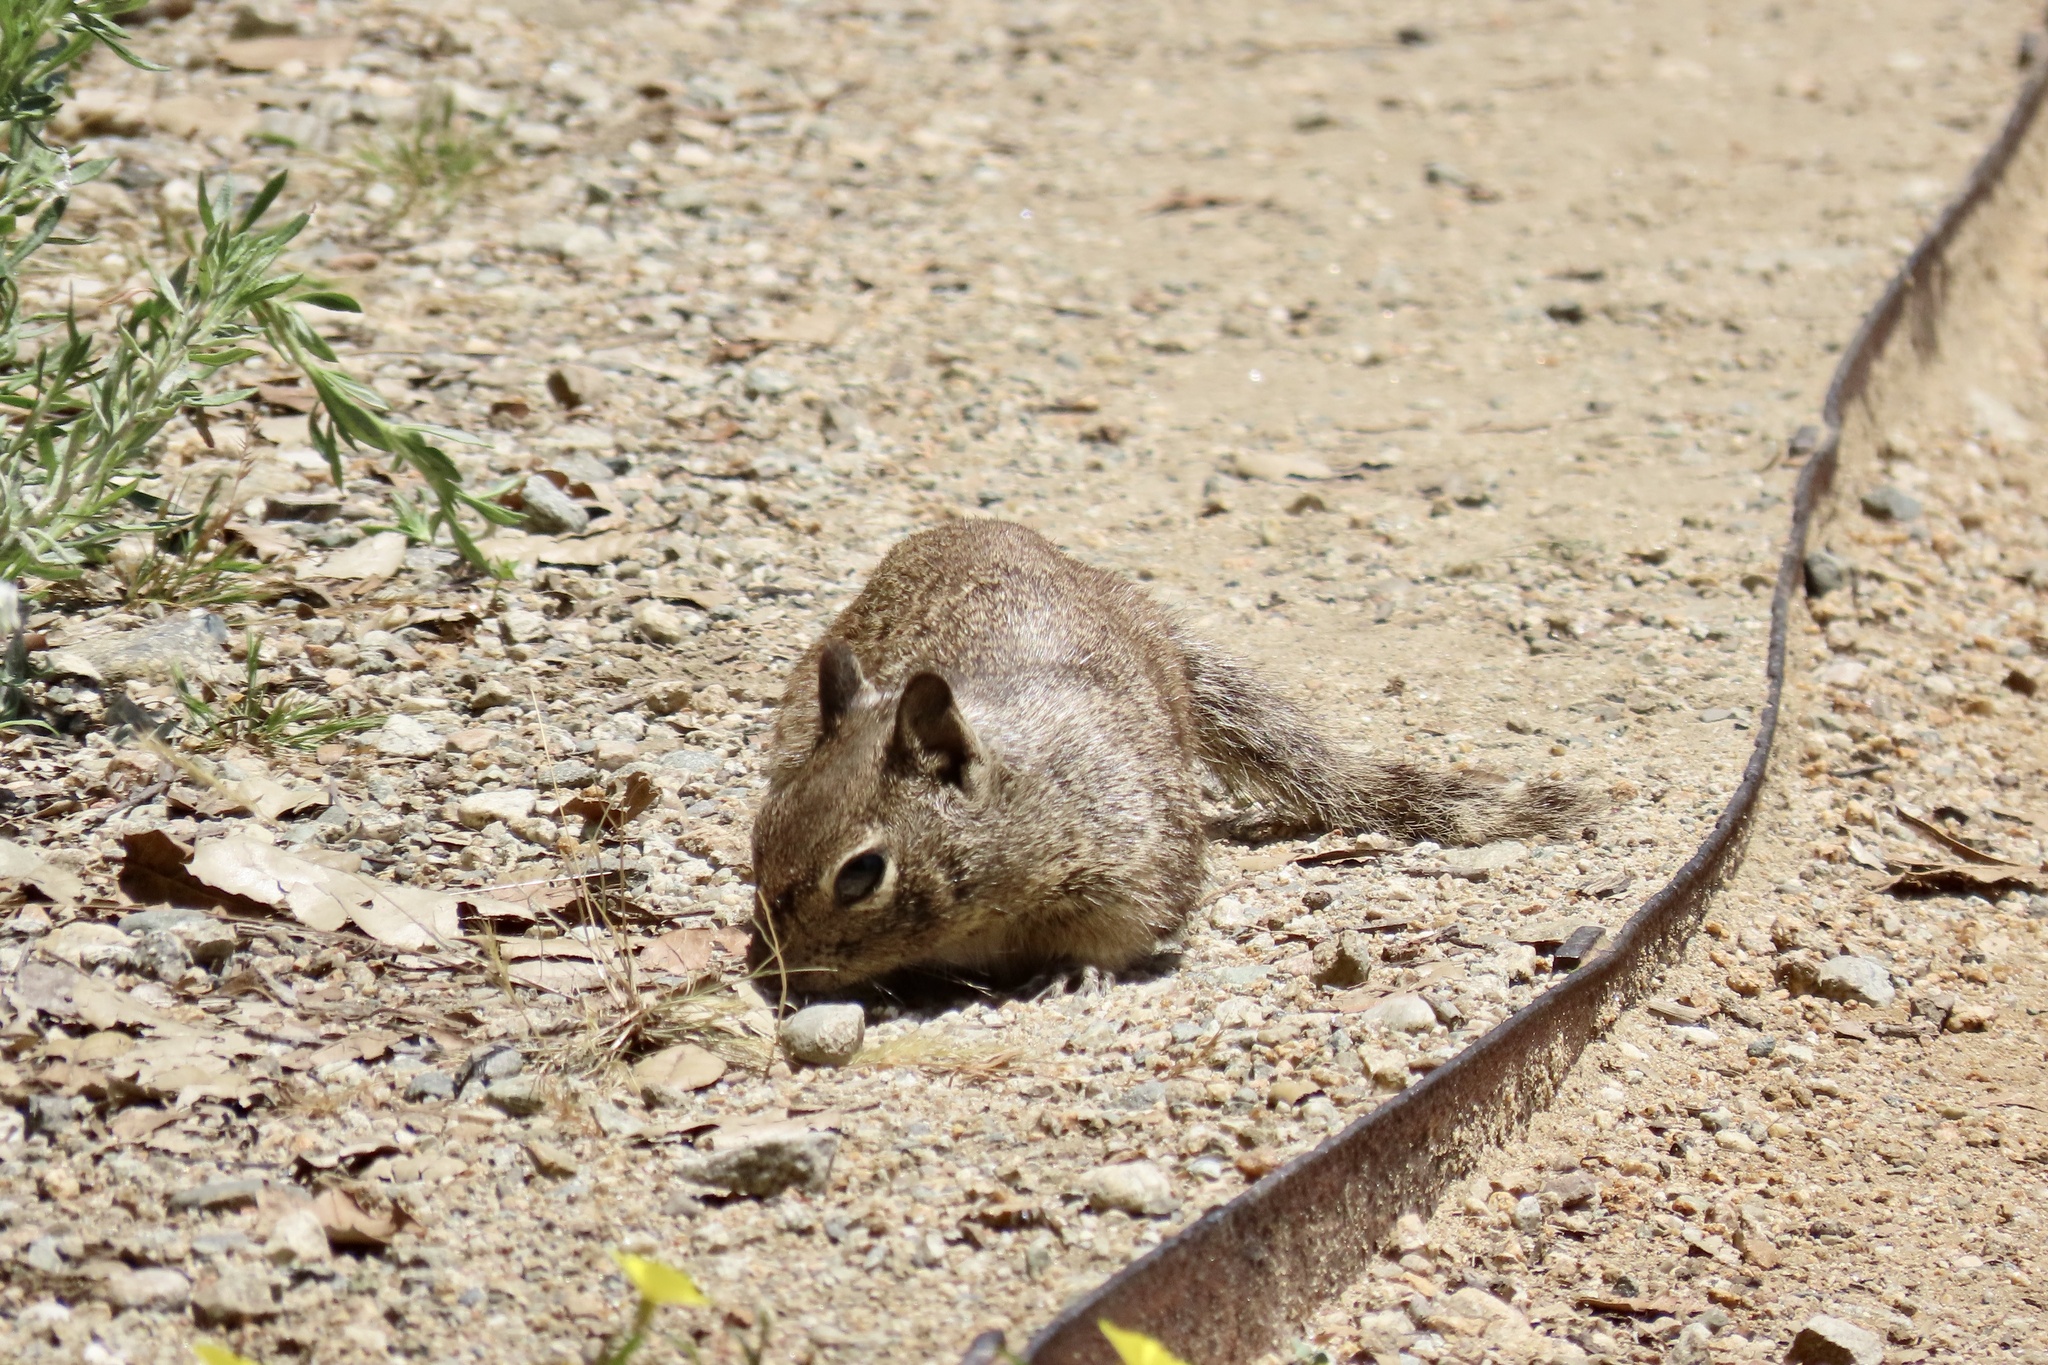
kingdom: Animalia
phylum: Chordata
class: Mammalia
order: Rodentia
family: Sciuridae
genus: Otospermophilus
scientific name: Otospermophilus beecheyi
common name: California ground squirrel
